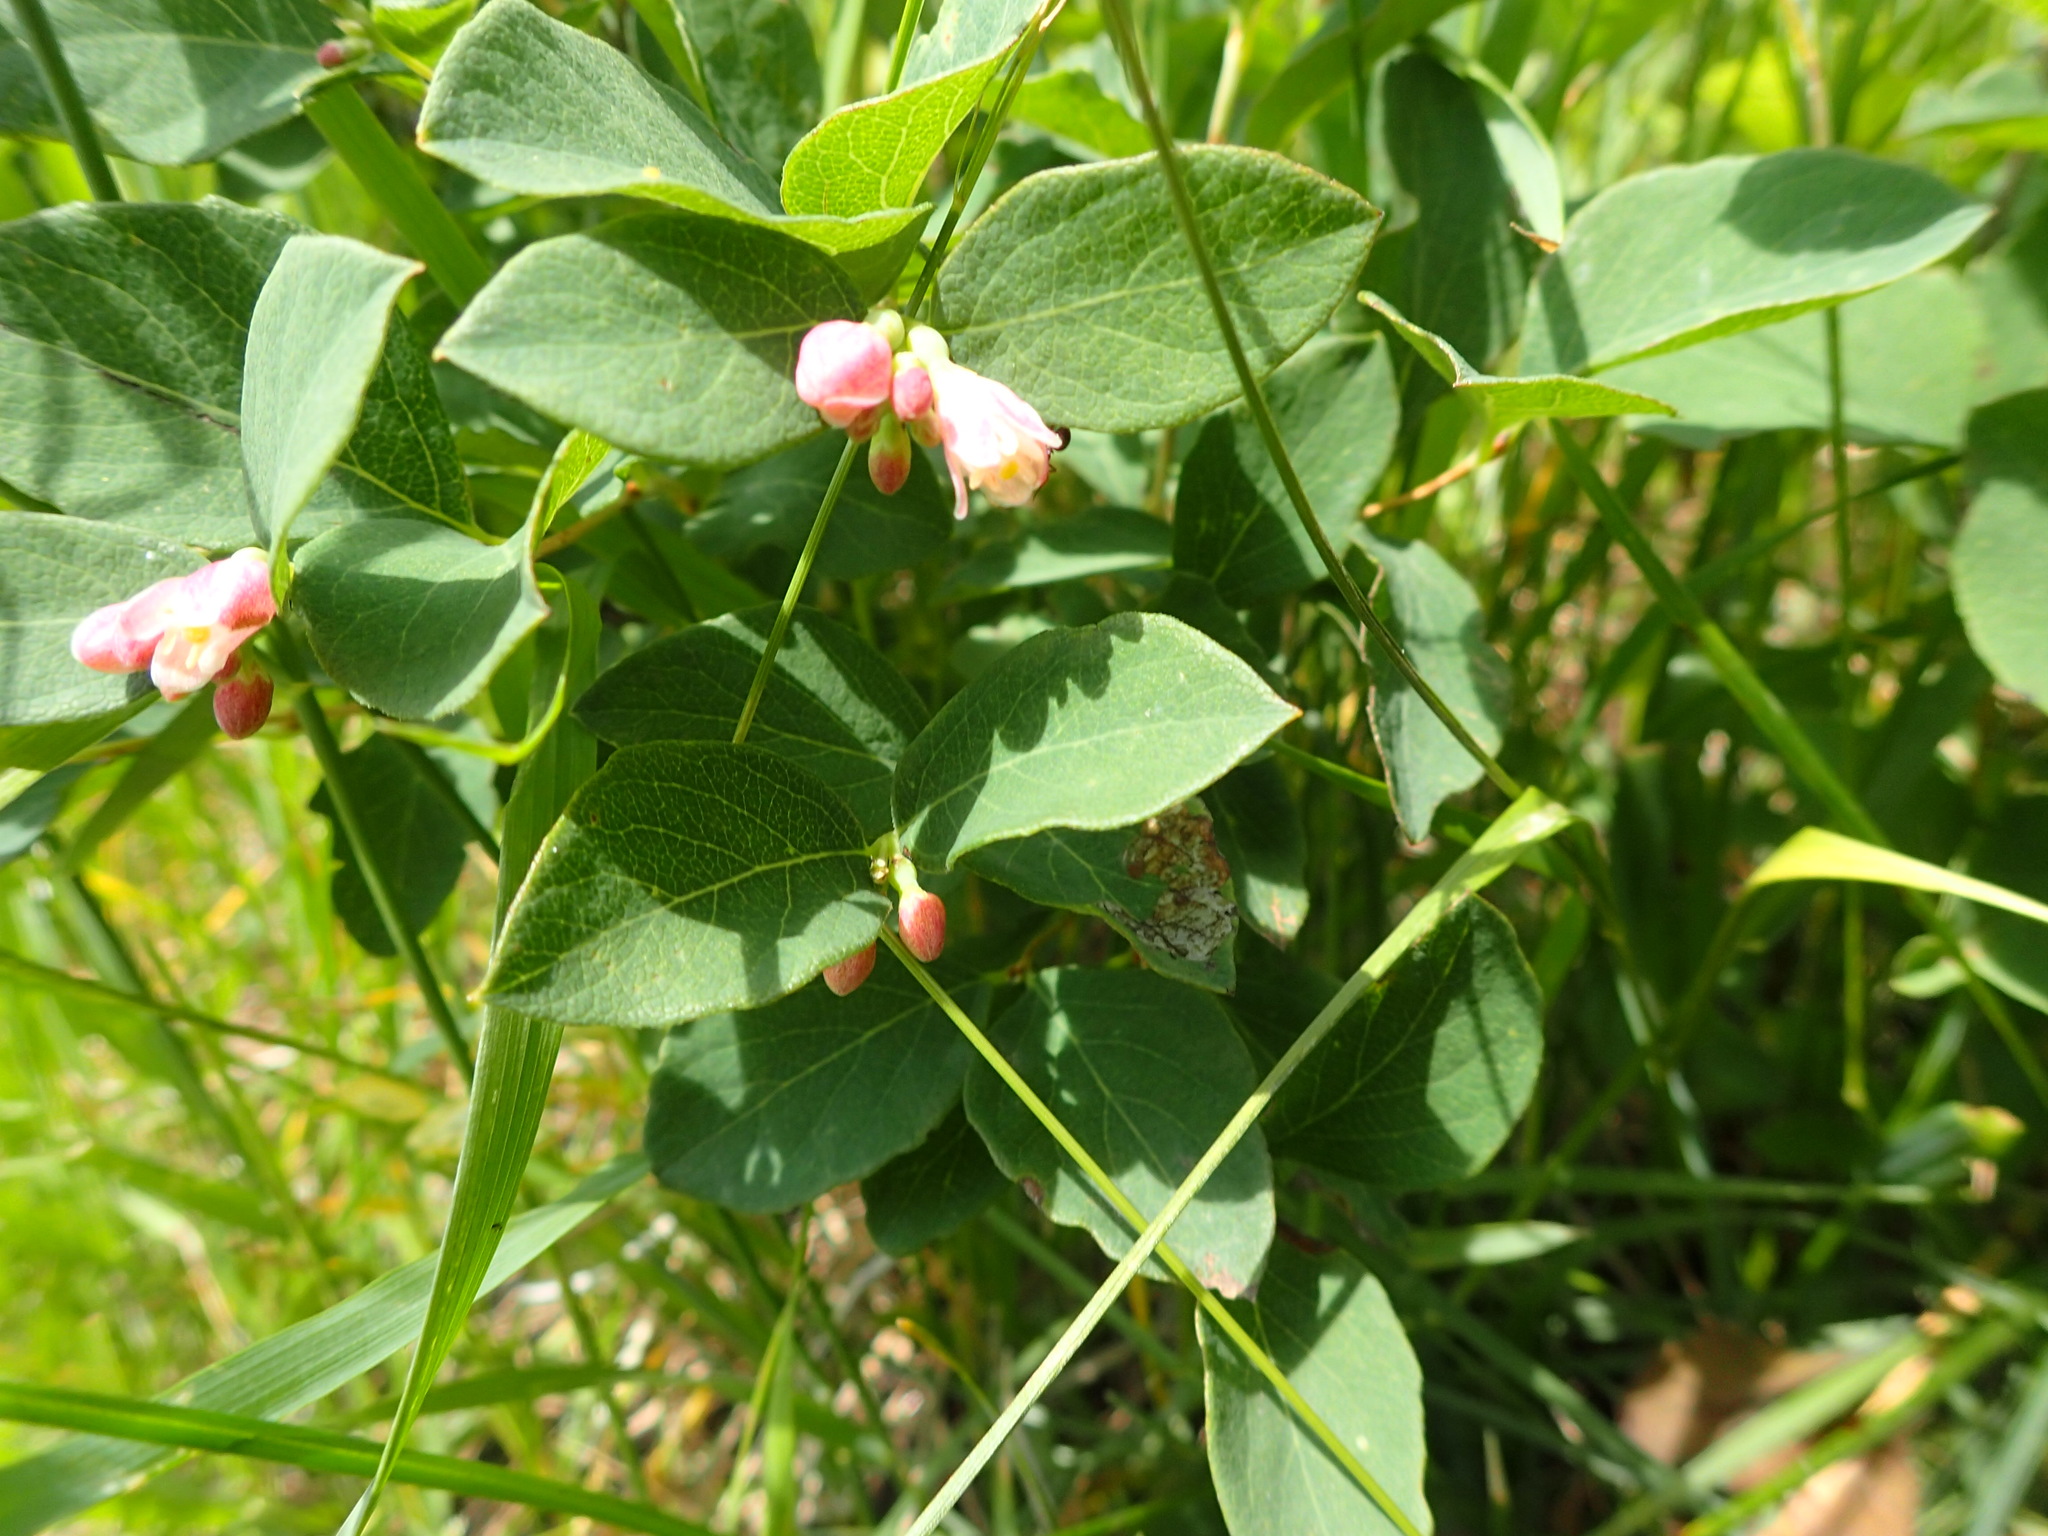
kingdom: Plantae
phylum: Tracheophyta
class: Magnoliopsida
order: Dipsacales
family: Caprifoliaceae
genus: Symphoricarpos
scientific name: Symphoricarpos albus
